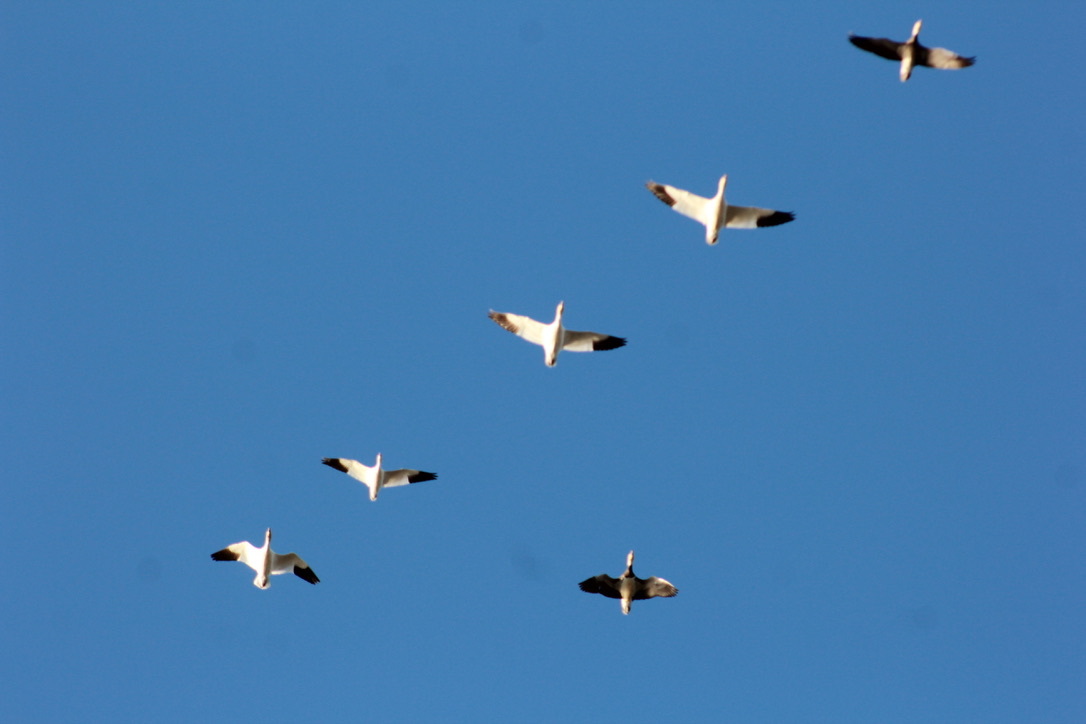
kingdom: Animalia
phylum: Chordata
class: Aves
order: Anseriformes
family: Anatidae
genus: Anser
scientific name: Anser caerulescens
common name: Snow goose
